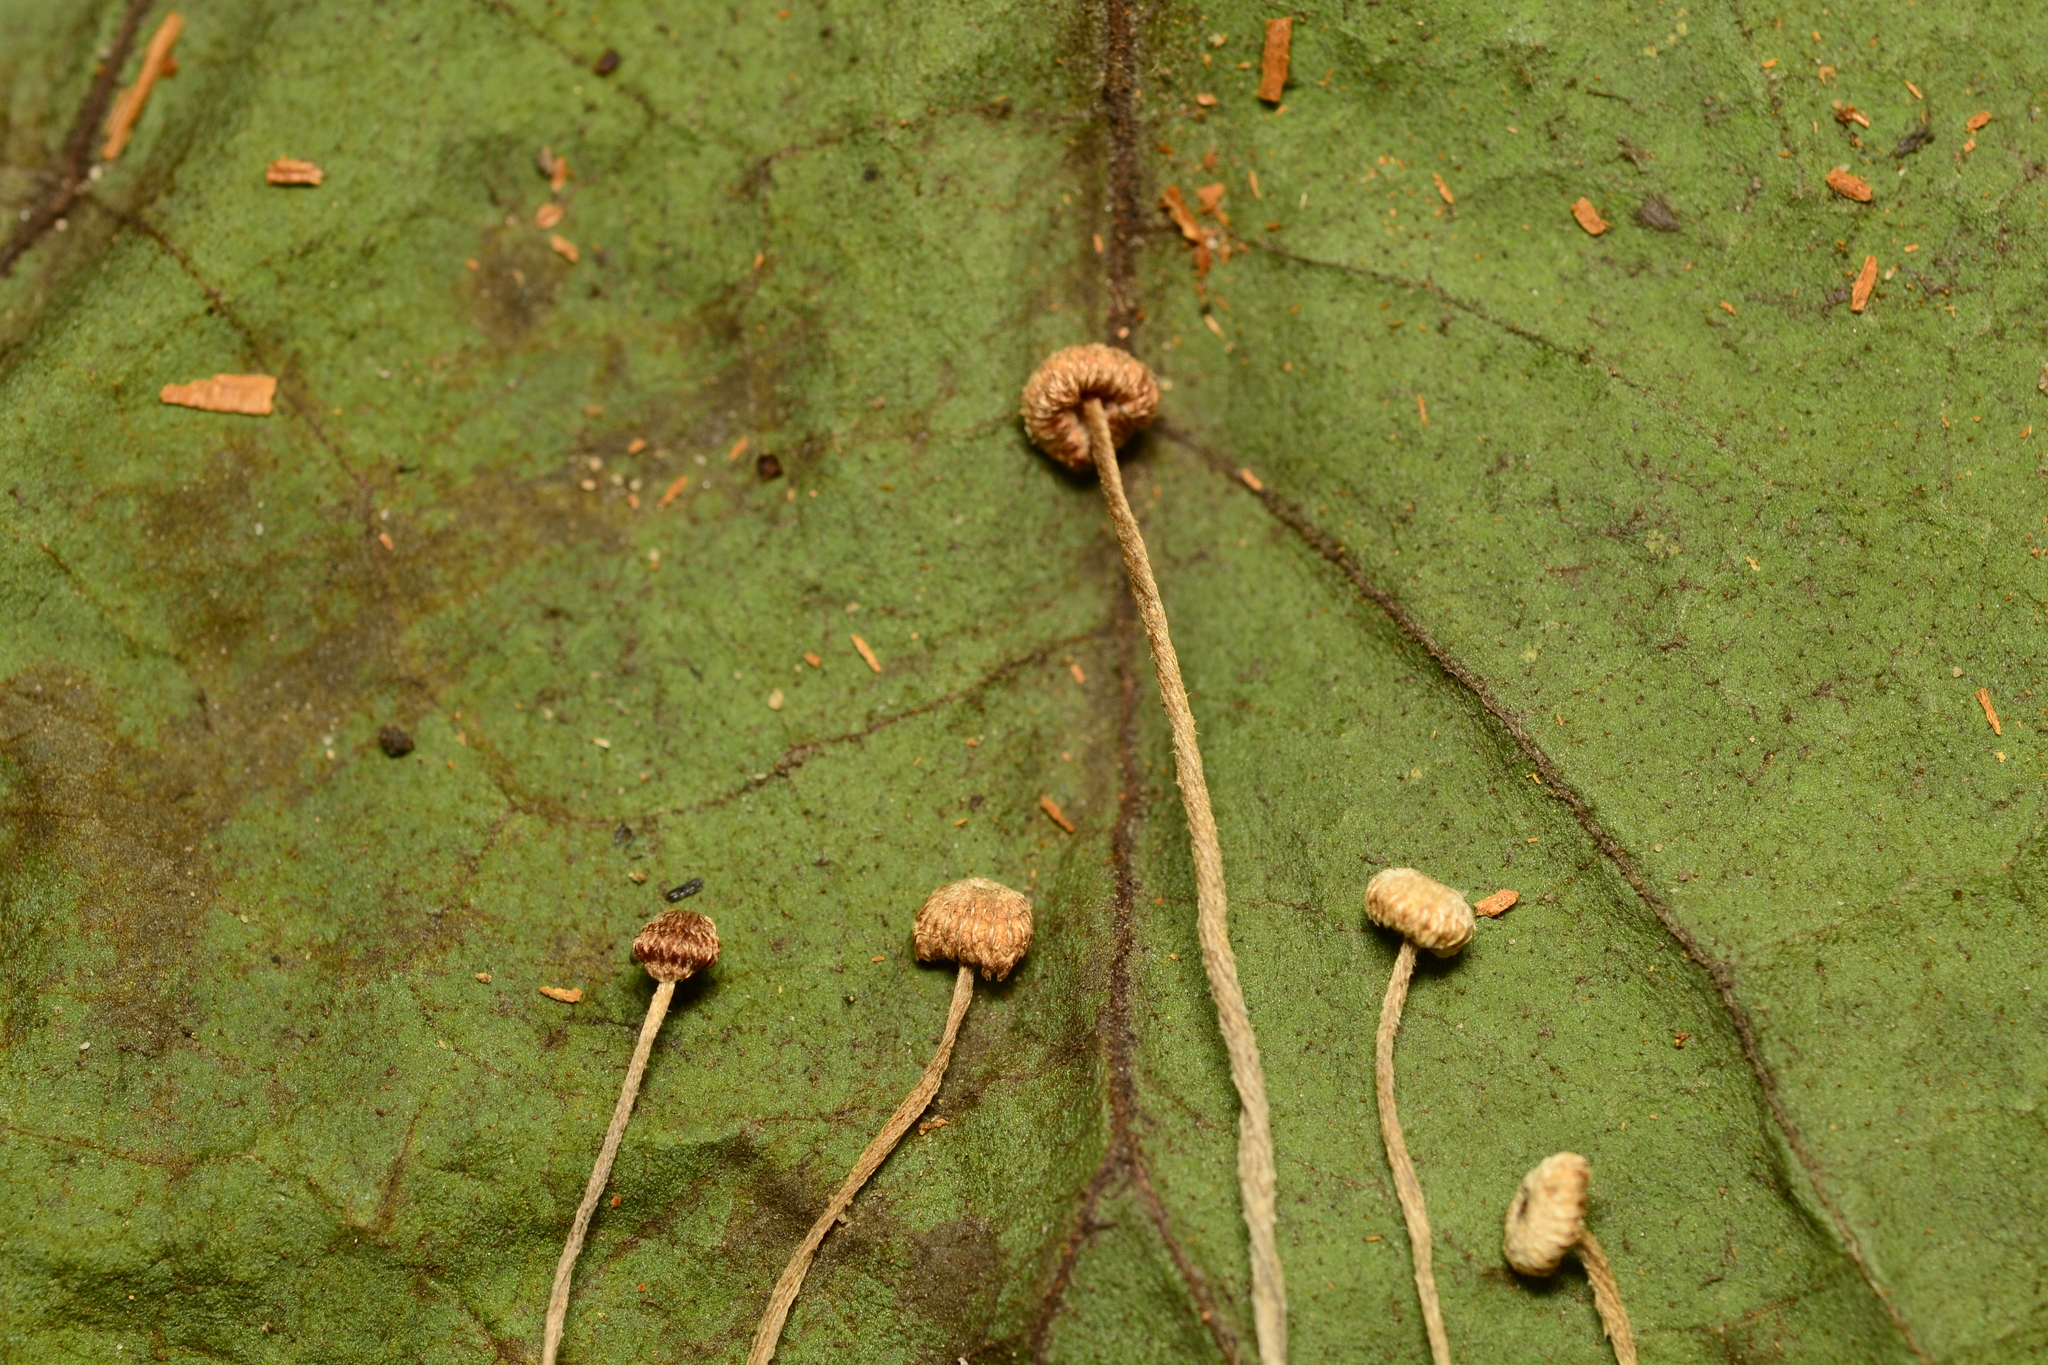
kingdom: Fungi
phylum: Basidiomycota
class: Agaricomycetes
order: Agaricales
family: Marasmiaceae
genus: Crinipellis
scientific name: Crinipellis setipes
